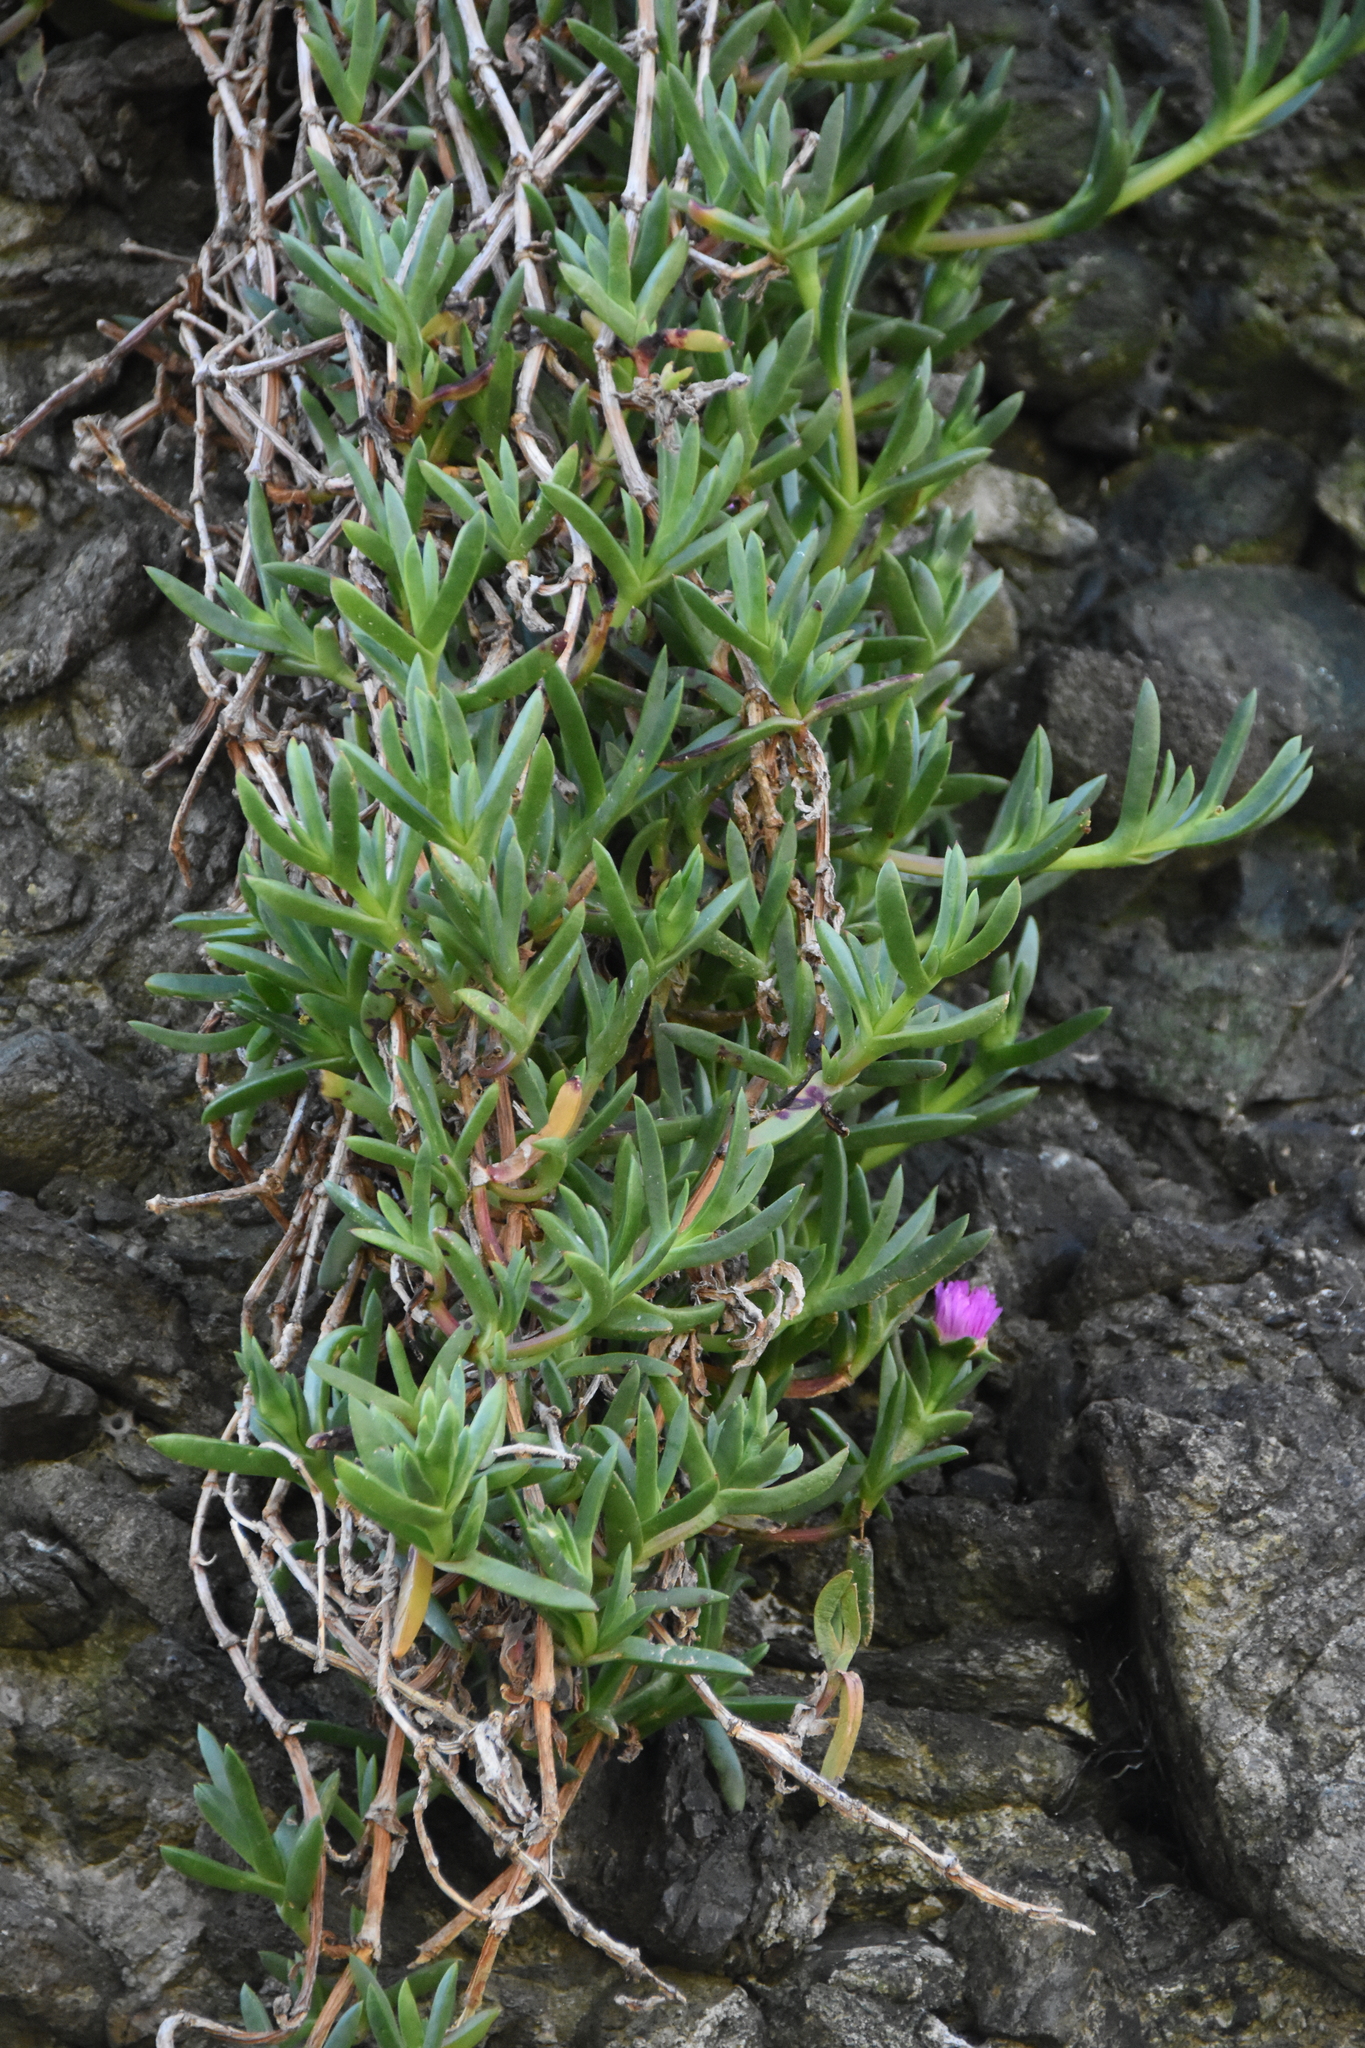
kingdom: Plantae
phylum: Tracheophyta
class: Magnoliopsida
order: Caryophyllales
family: Aizoaceae
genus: Carpobrotus
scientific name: Carpobrotus chilensis
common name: Sea fig
